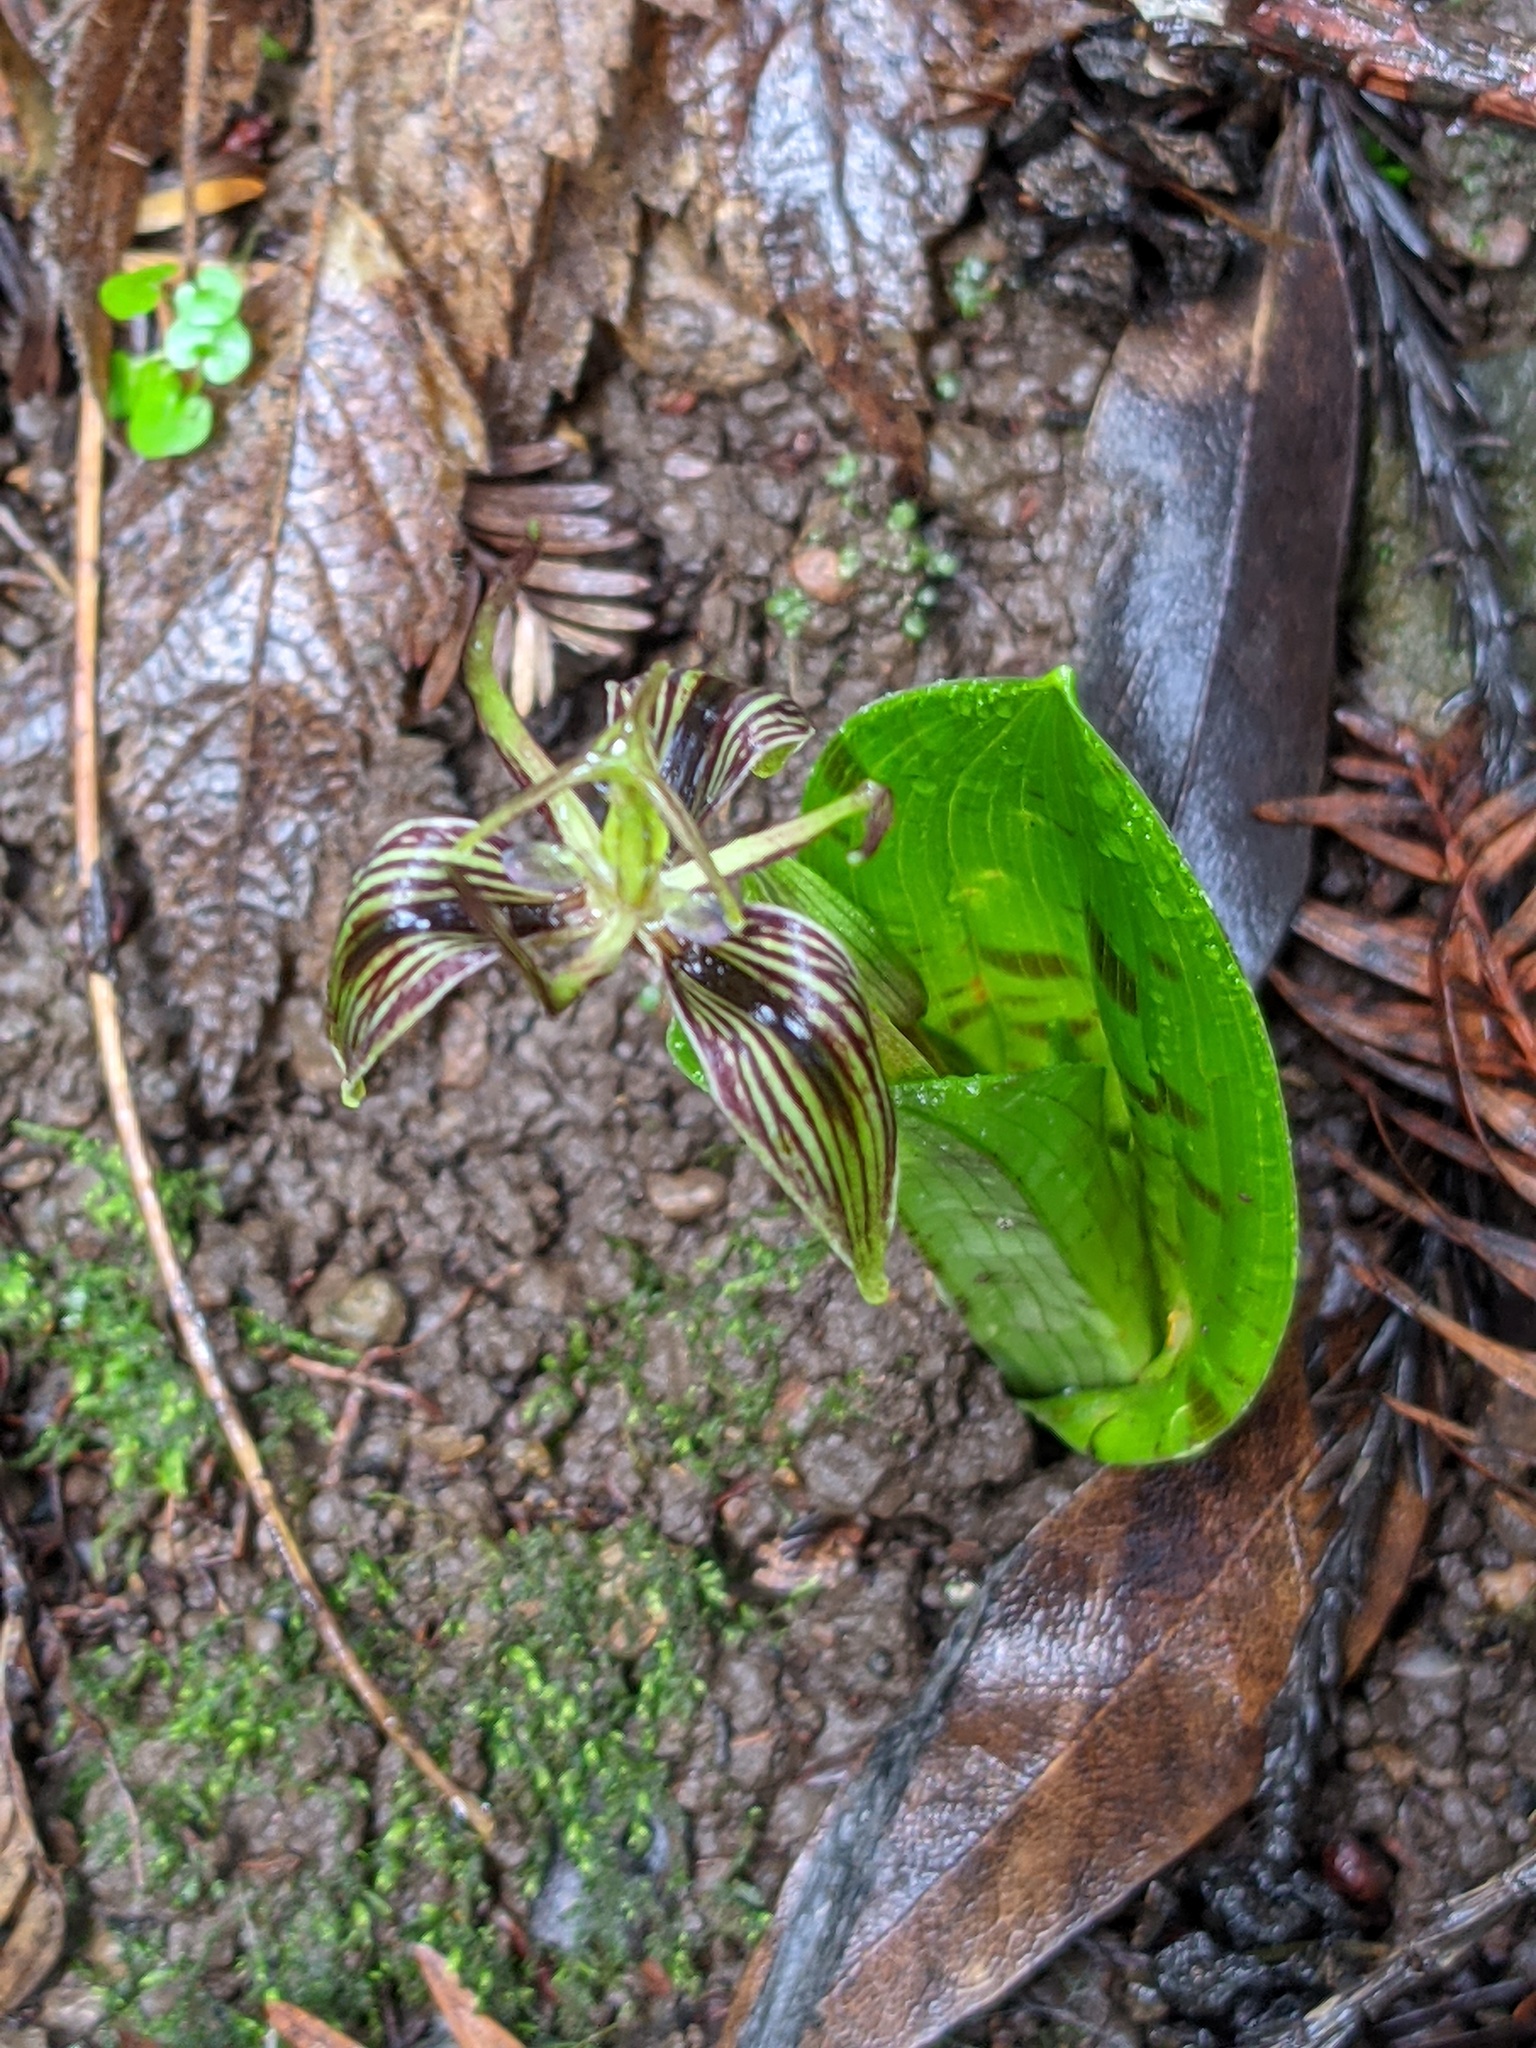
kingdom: Plantae
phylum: Tracheophyta
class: Liliopsida
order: Liliales
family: Liliaceae
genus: Scoliopus
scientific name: Scoliopus bigelovii
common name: Foetid adder's-tongue
